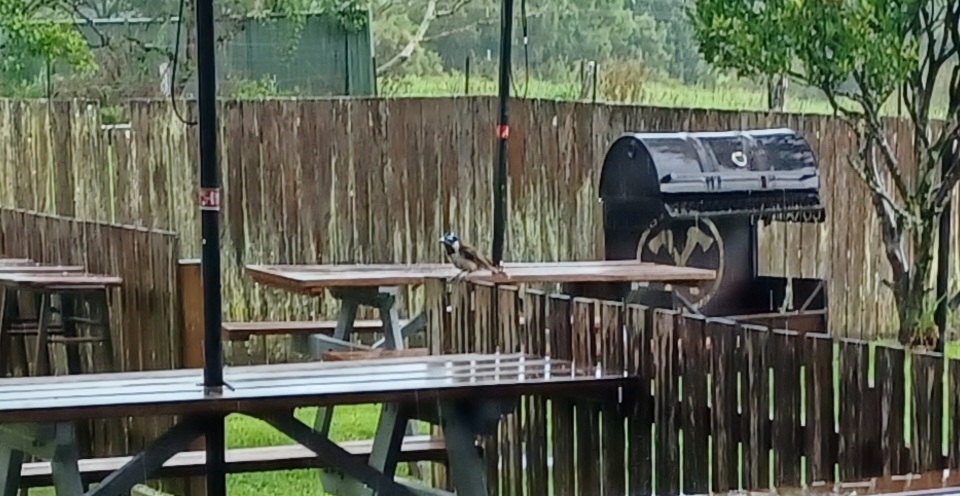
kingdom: Animalia
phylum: Chordata
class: Aves
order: Passeriformes
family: Meliphagidae
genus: Entomyzon
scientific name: Entomyzon cyanotis
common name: Blue-faced honeyeater
